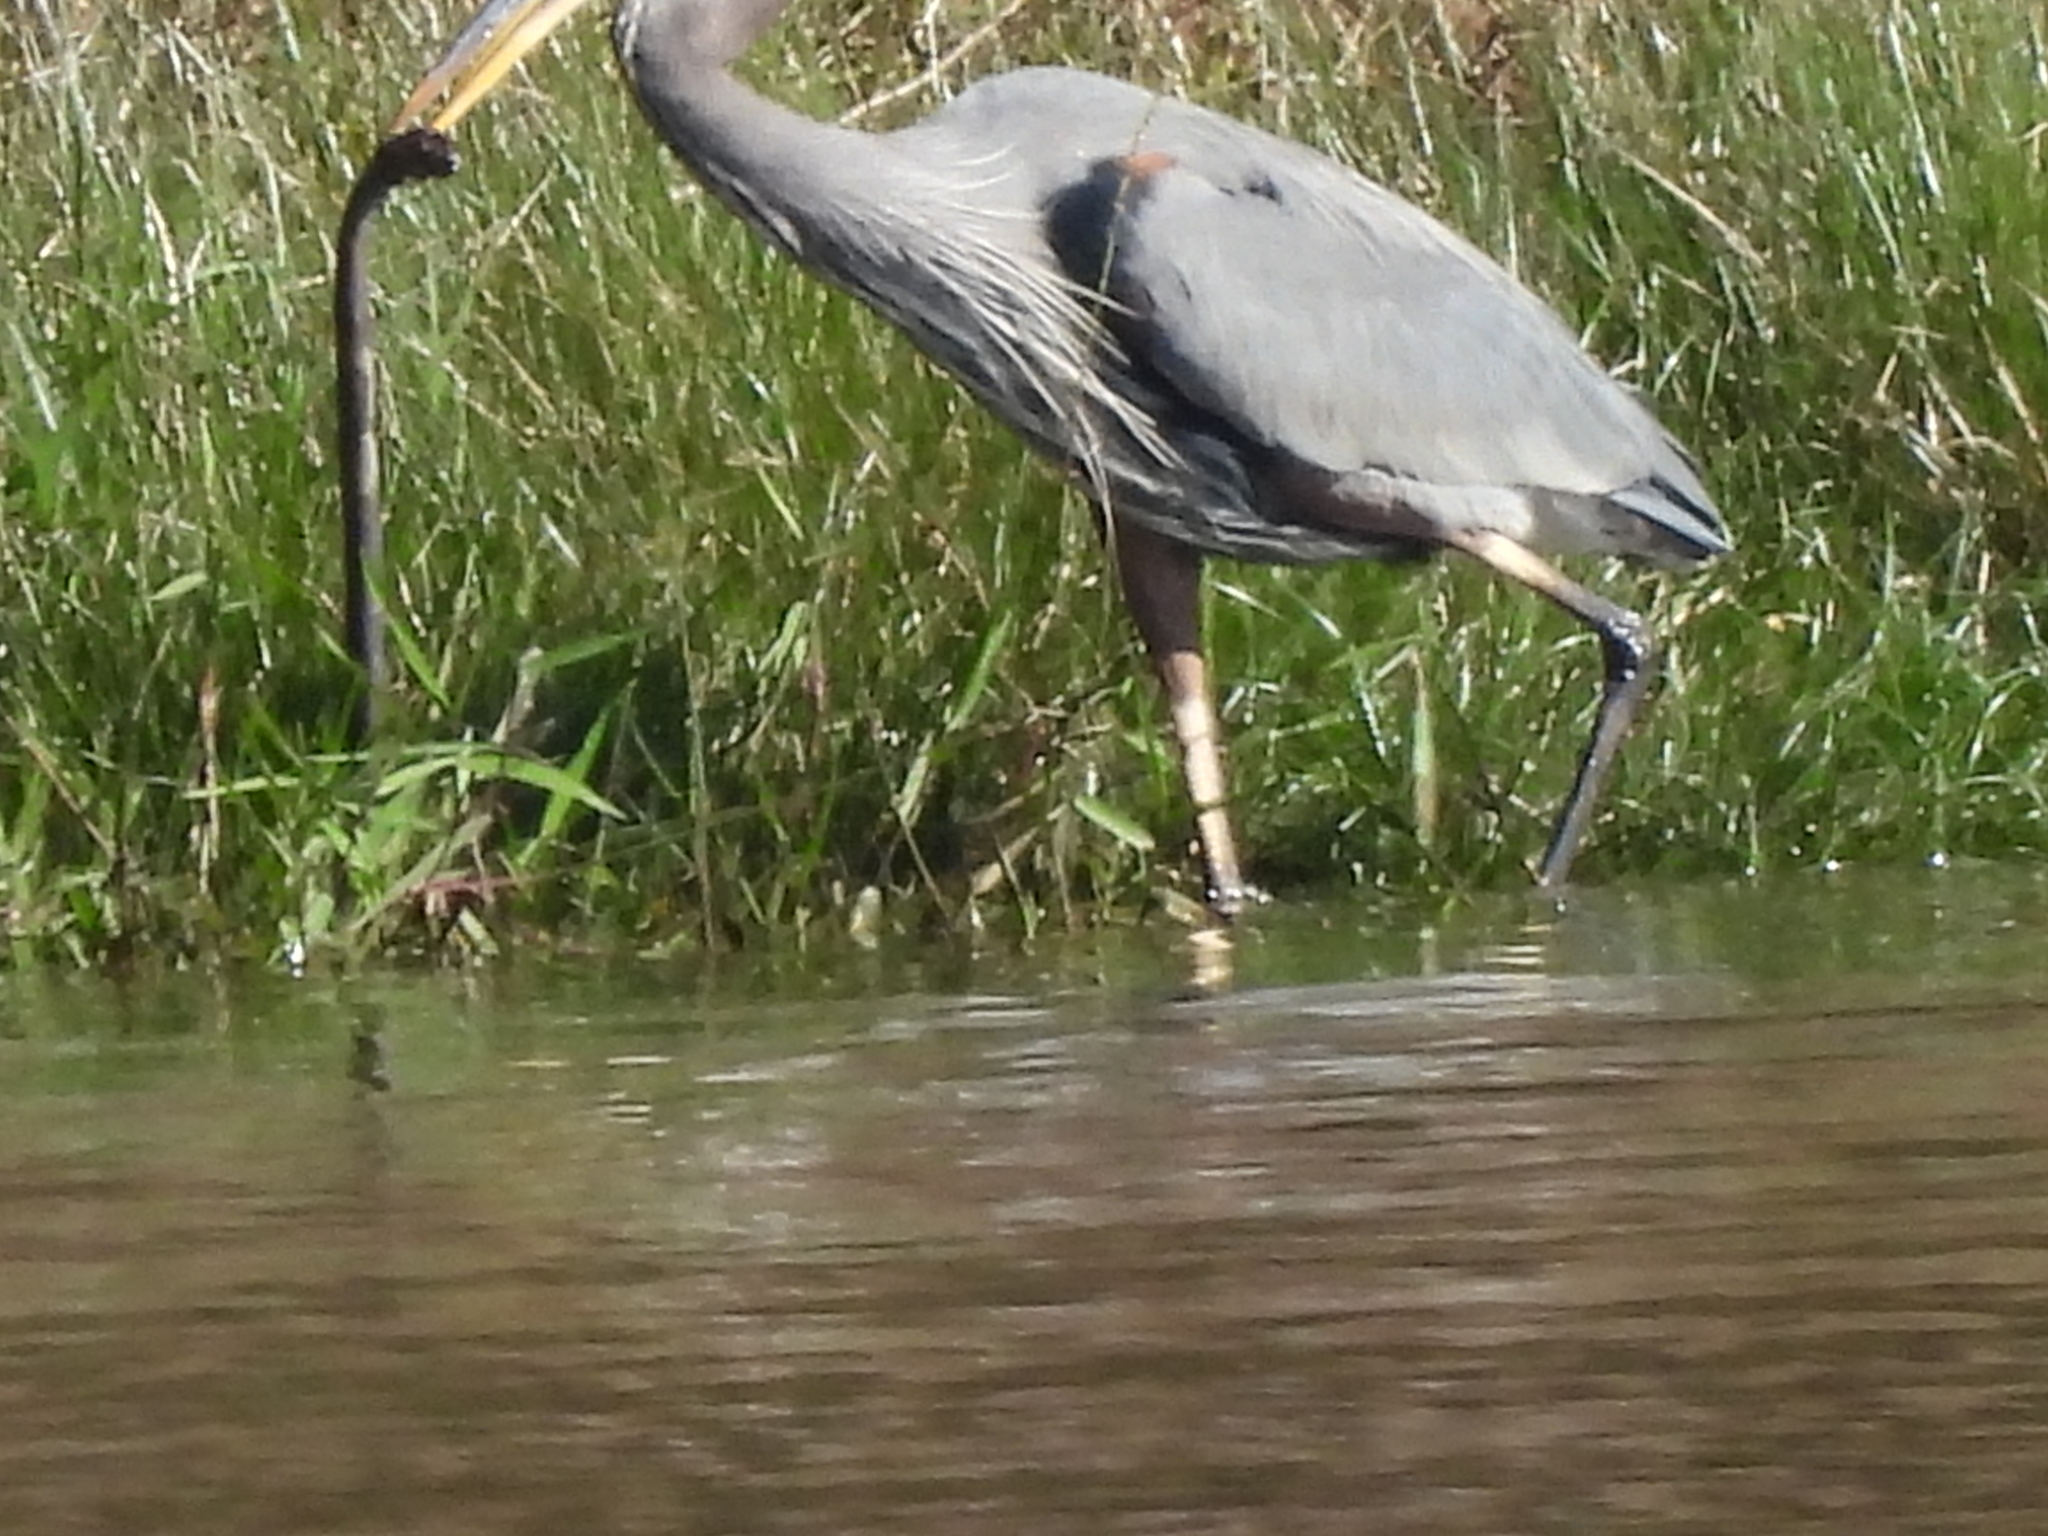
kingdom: Animalia
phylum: Chordata
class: Aves
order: Pelecaniformes
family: Ardeidae
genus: Ardea
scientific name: Ardea herodias
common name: Great blue heron
